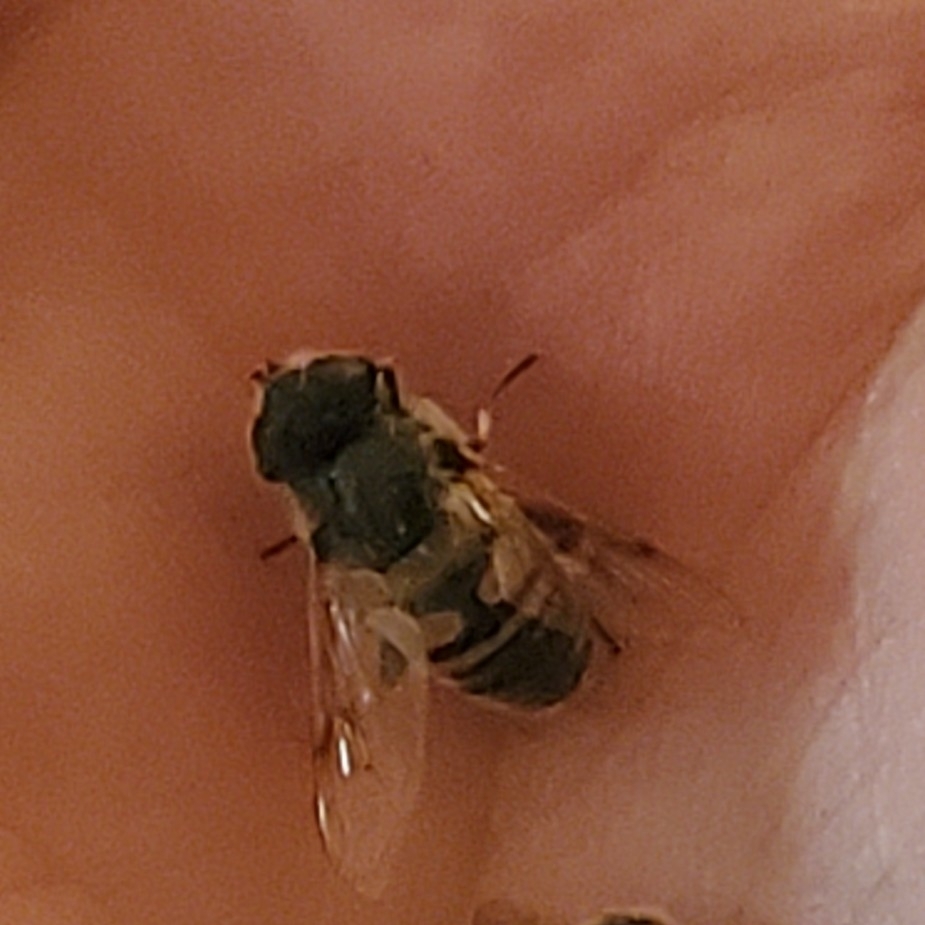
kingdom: Animalia
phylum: Arthropoda
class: Insecta
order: Diptera
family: Syrphidae
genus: Eristalis
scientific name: Eristalis tenax
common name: Drone fly
